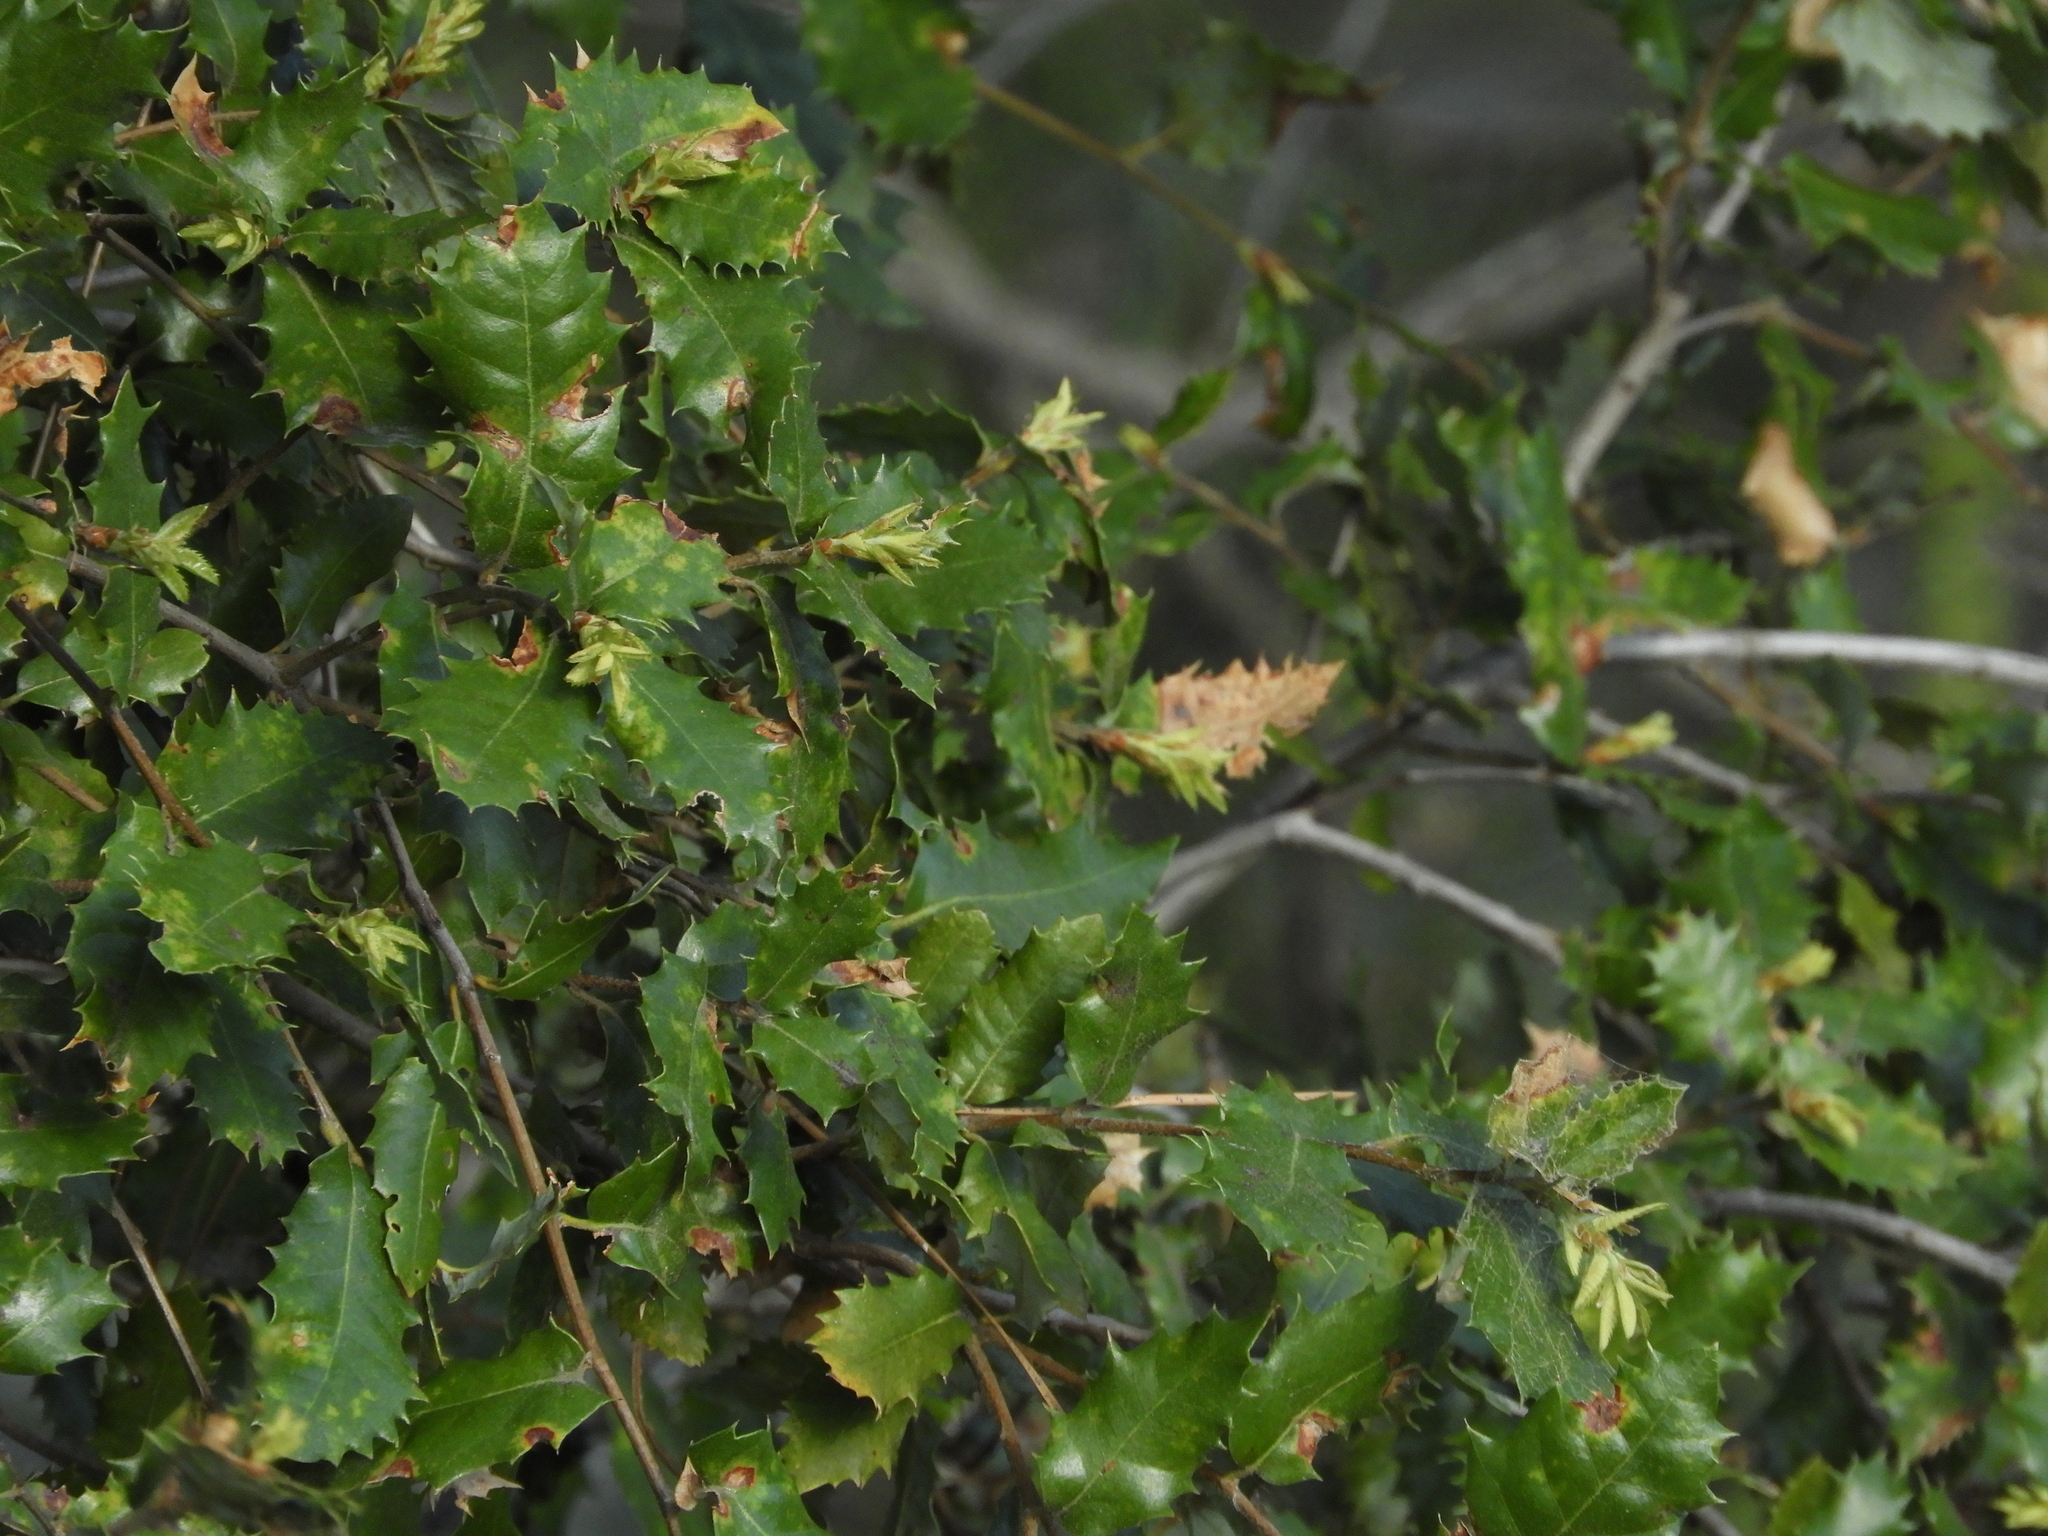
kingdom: Plantae
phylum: Tracheophyta
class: Magnoliopsida
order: Fagales
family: Fagaceae
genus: Quercus
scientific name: Quercus chrysolepis
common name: Canyon live oak
